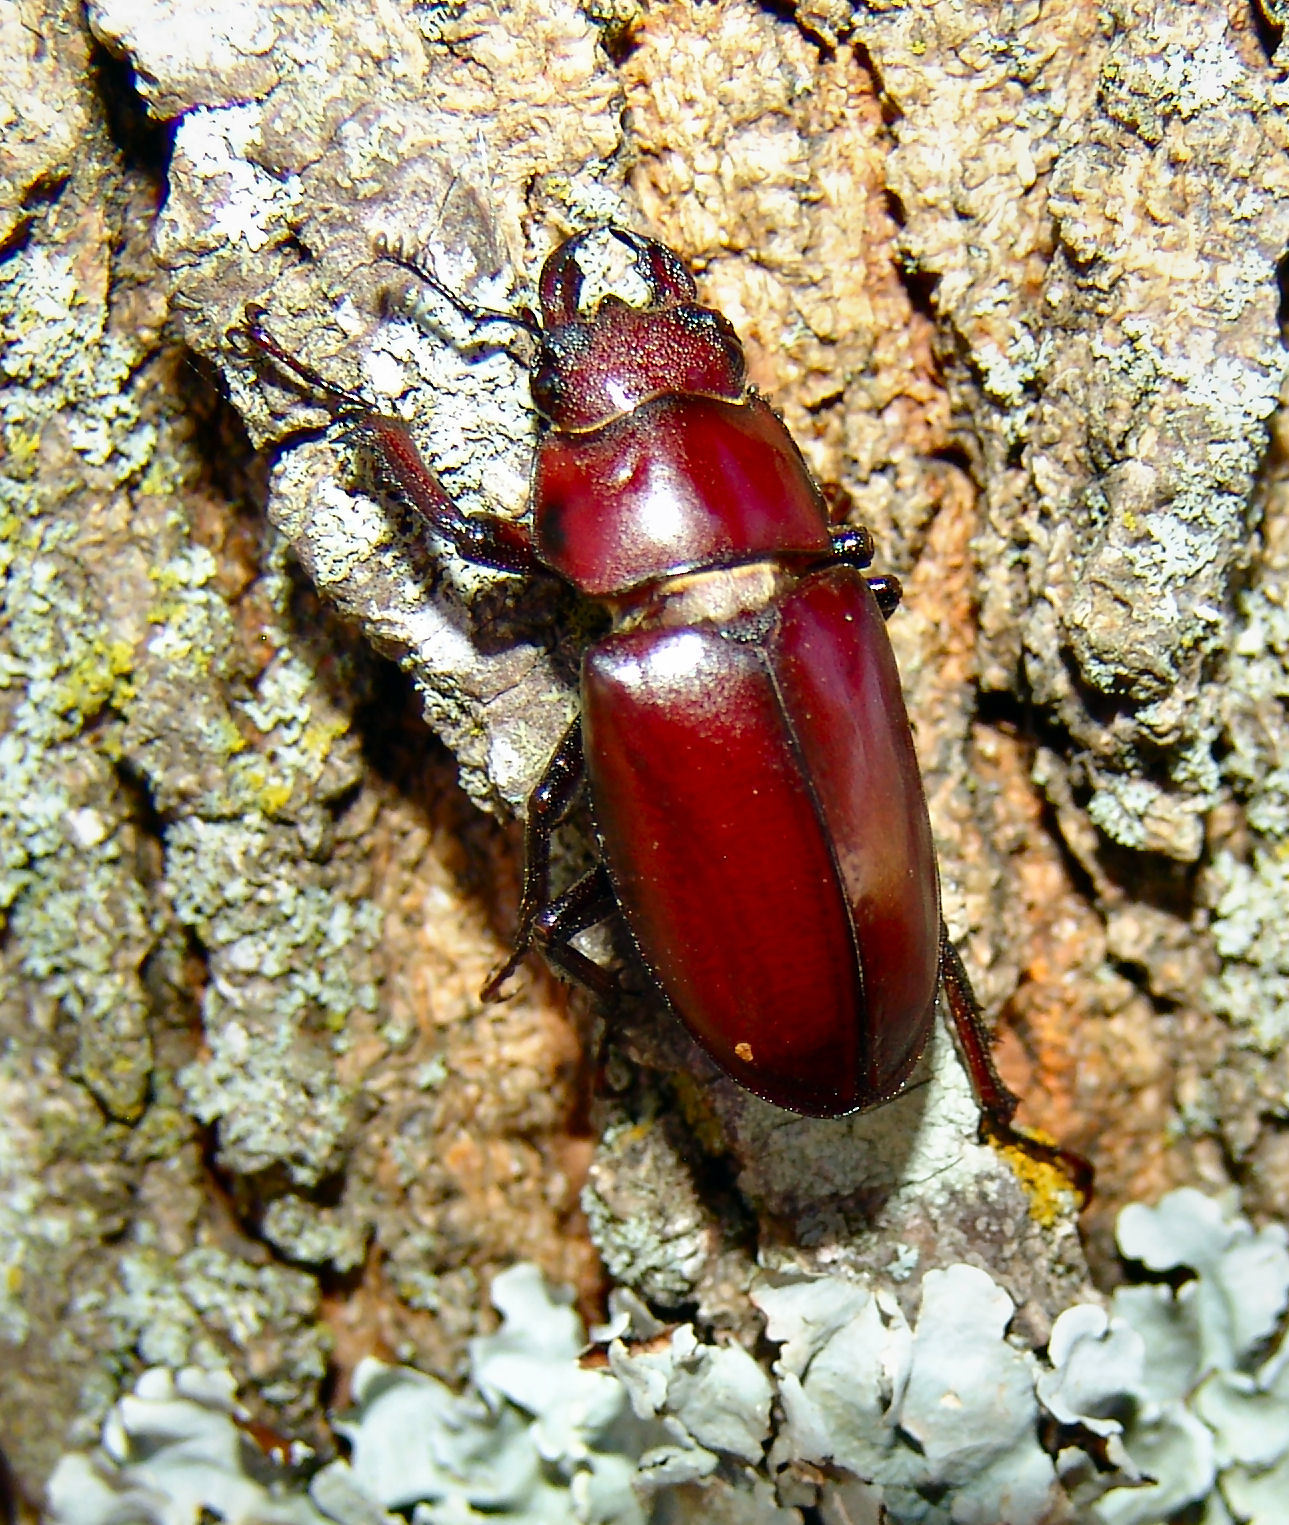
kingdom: Animalia
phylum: Arthropoda
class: Insecta
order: Coleoptera
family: Lucanidae
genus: Lucanus
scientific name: Lucanus elaphus
